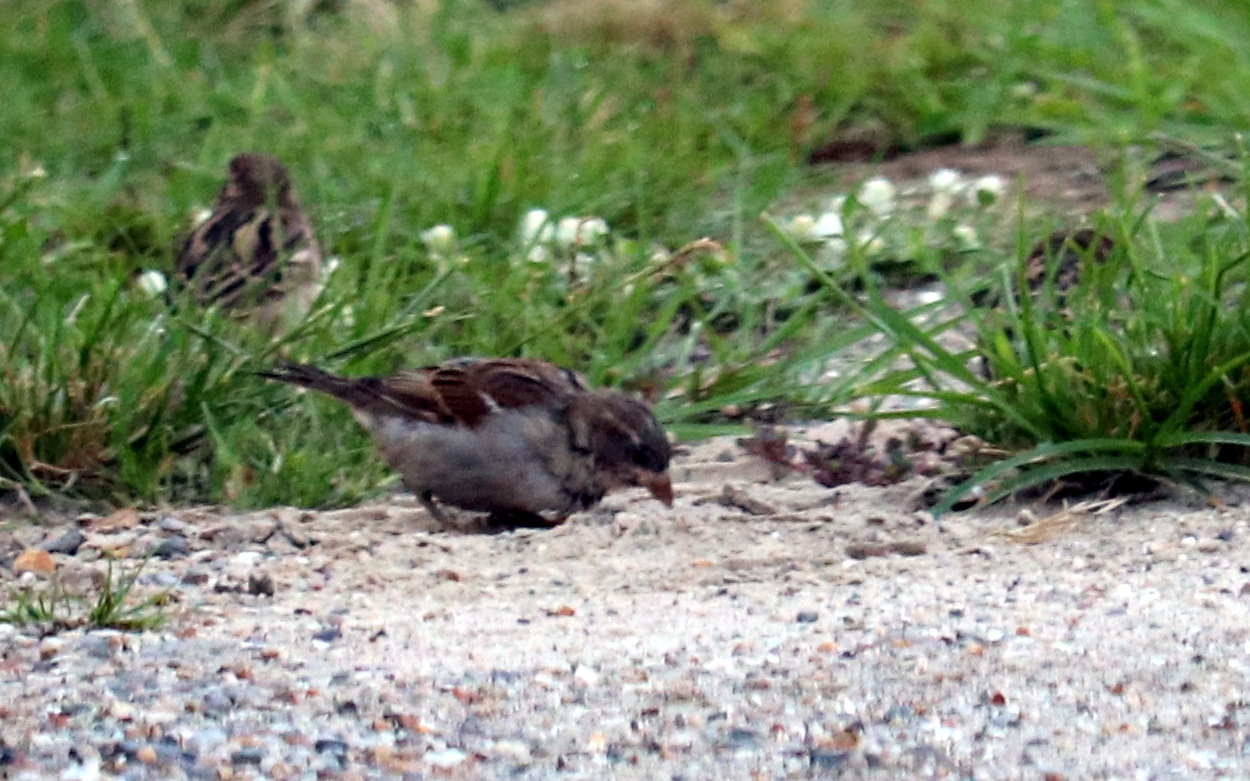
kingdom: Animalia
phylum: Chordata
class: Aves
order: Passeriformes
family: Passeridae
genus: Passer
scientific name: Passer domesticus
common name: House sparrow
